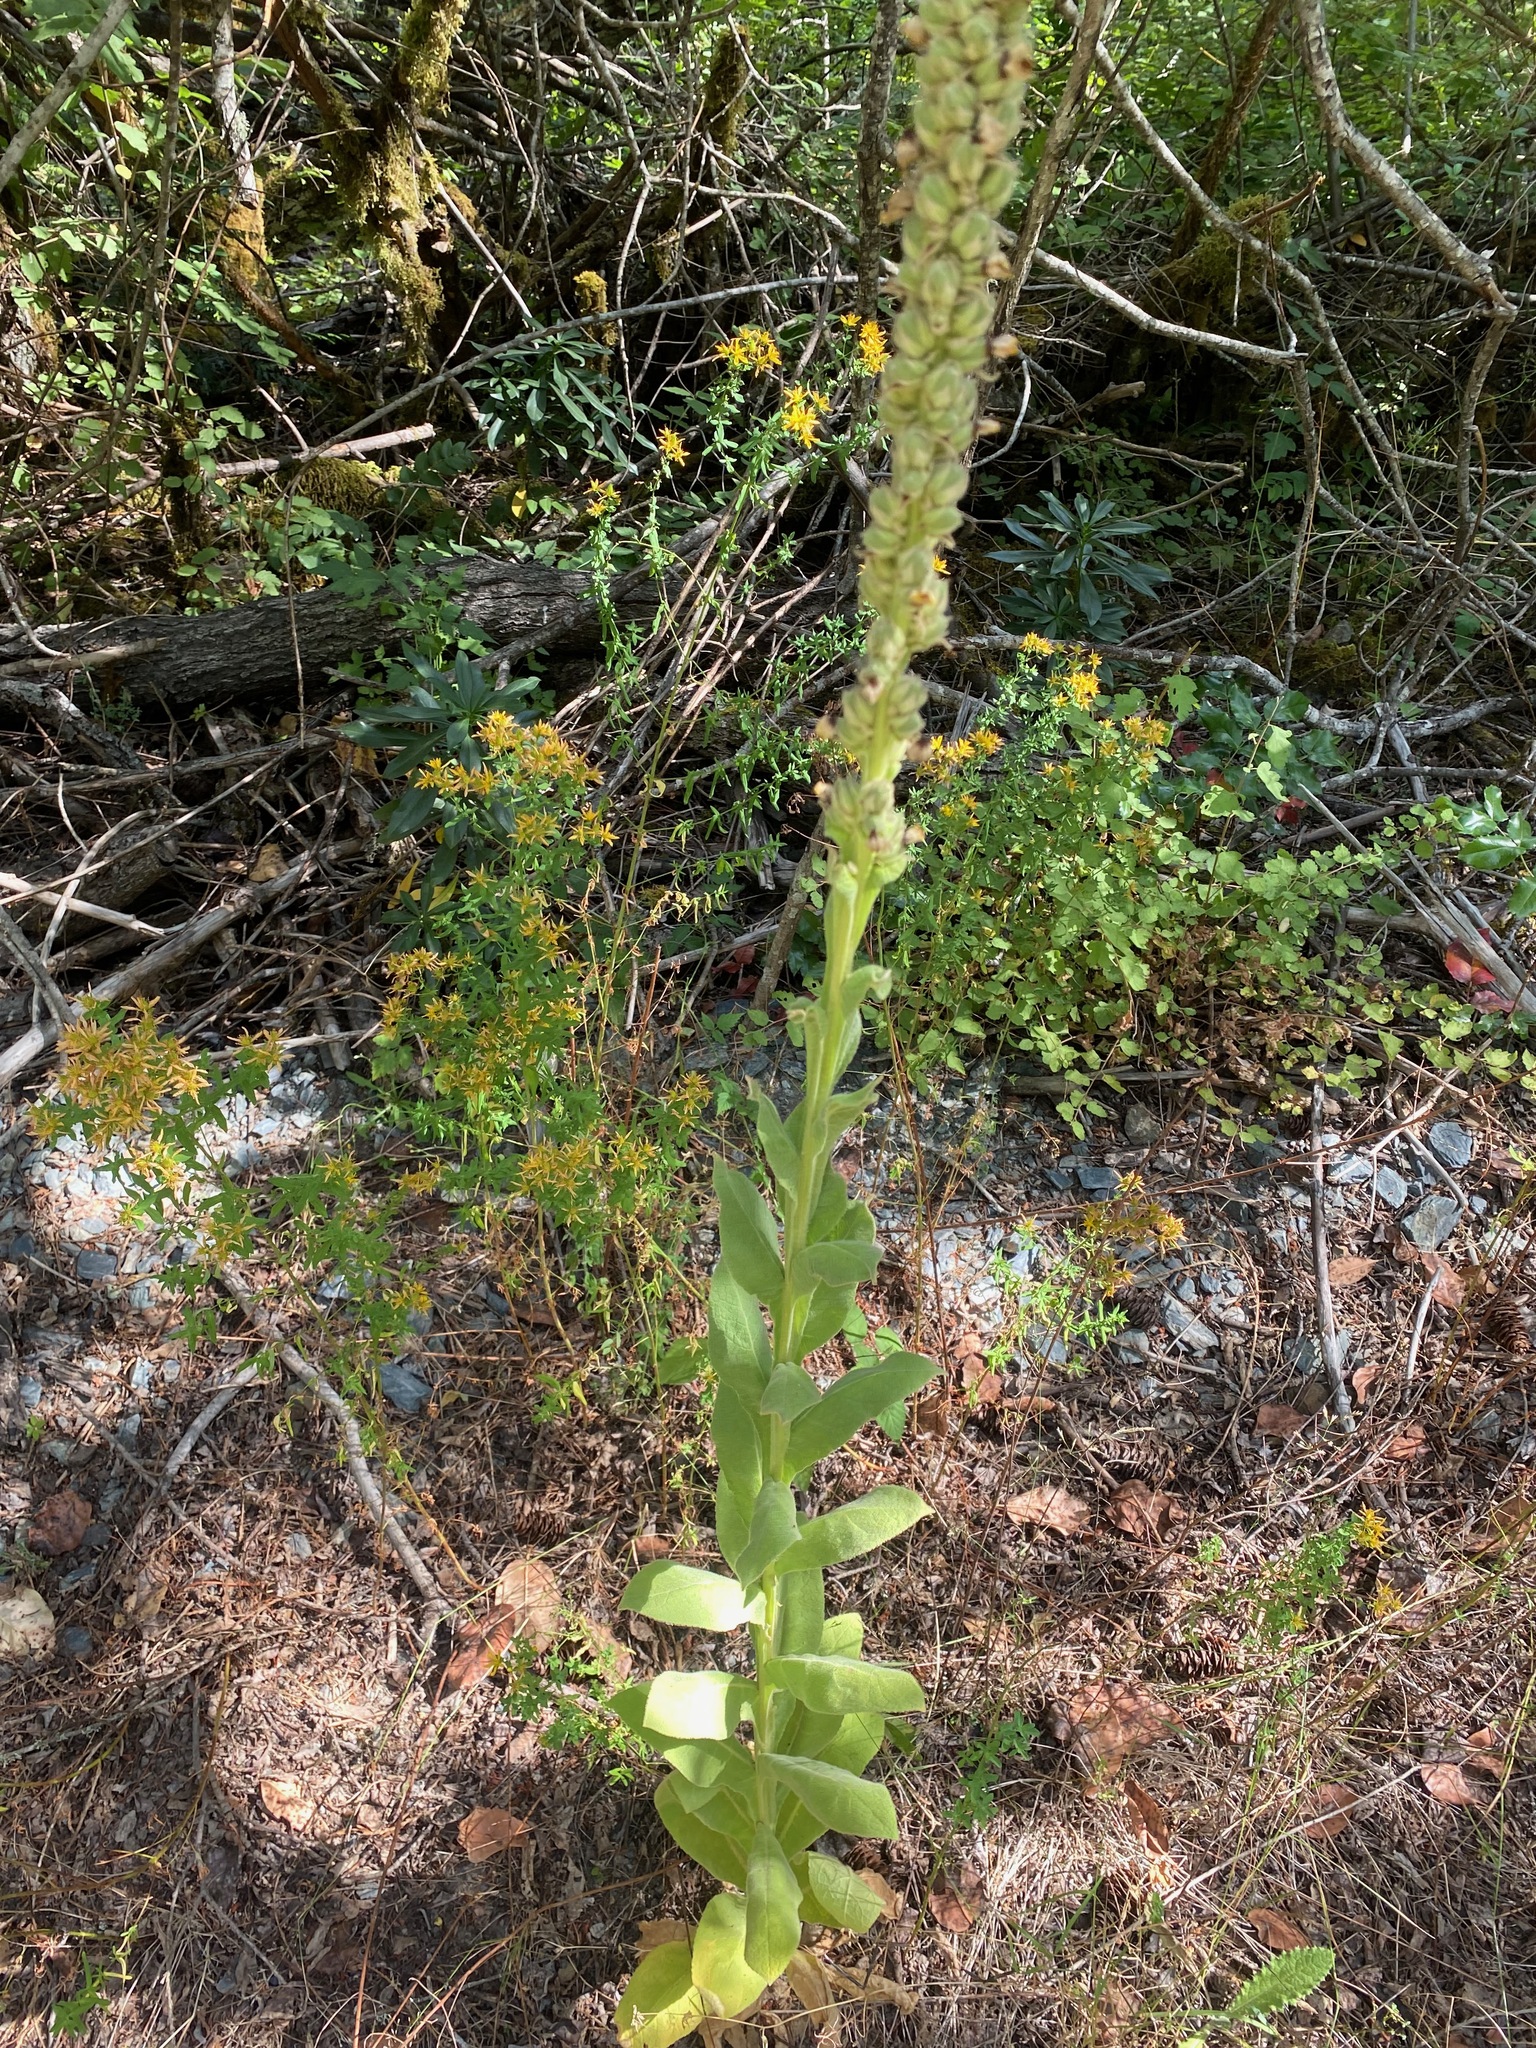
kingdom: Plantae
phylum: Tracheophyta
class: Magnoliopsida
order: Lamiales
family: Scrophulariaceae
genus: Verbascum
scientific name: Verbascum thapsus
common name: Common mullein
